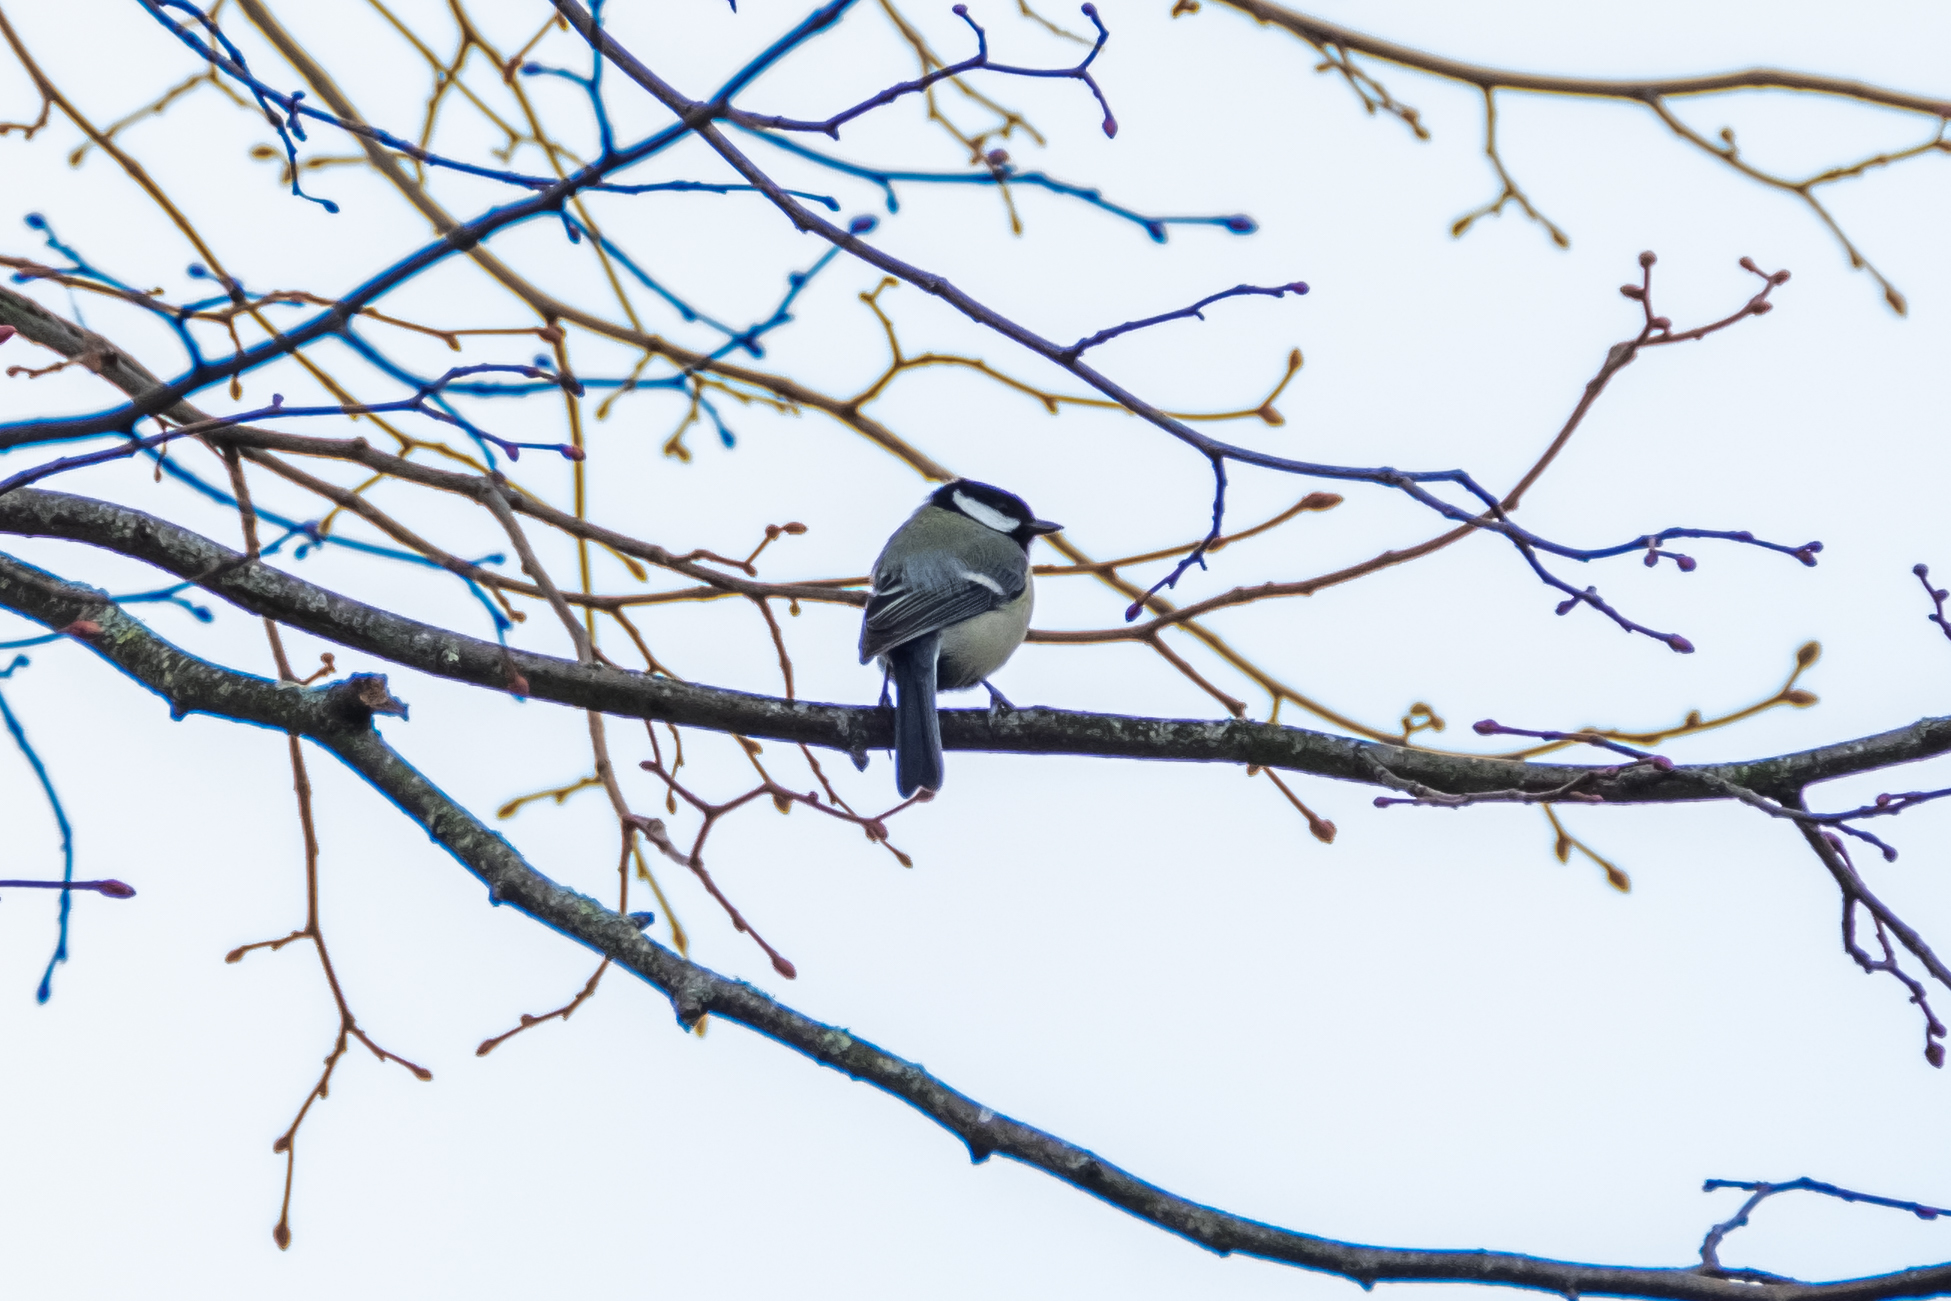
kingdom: Animalia
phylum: Chordata
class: Aves
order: Passeriformes
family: Paridae
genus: Parus
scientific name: Parus major
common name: Great tit
